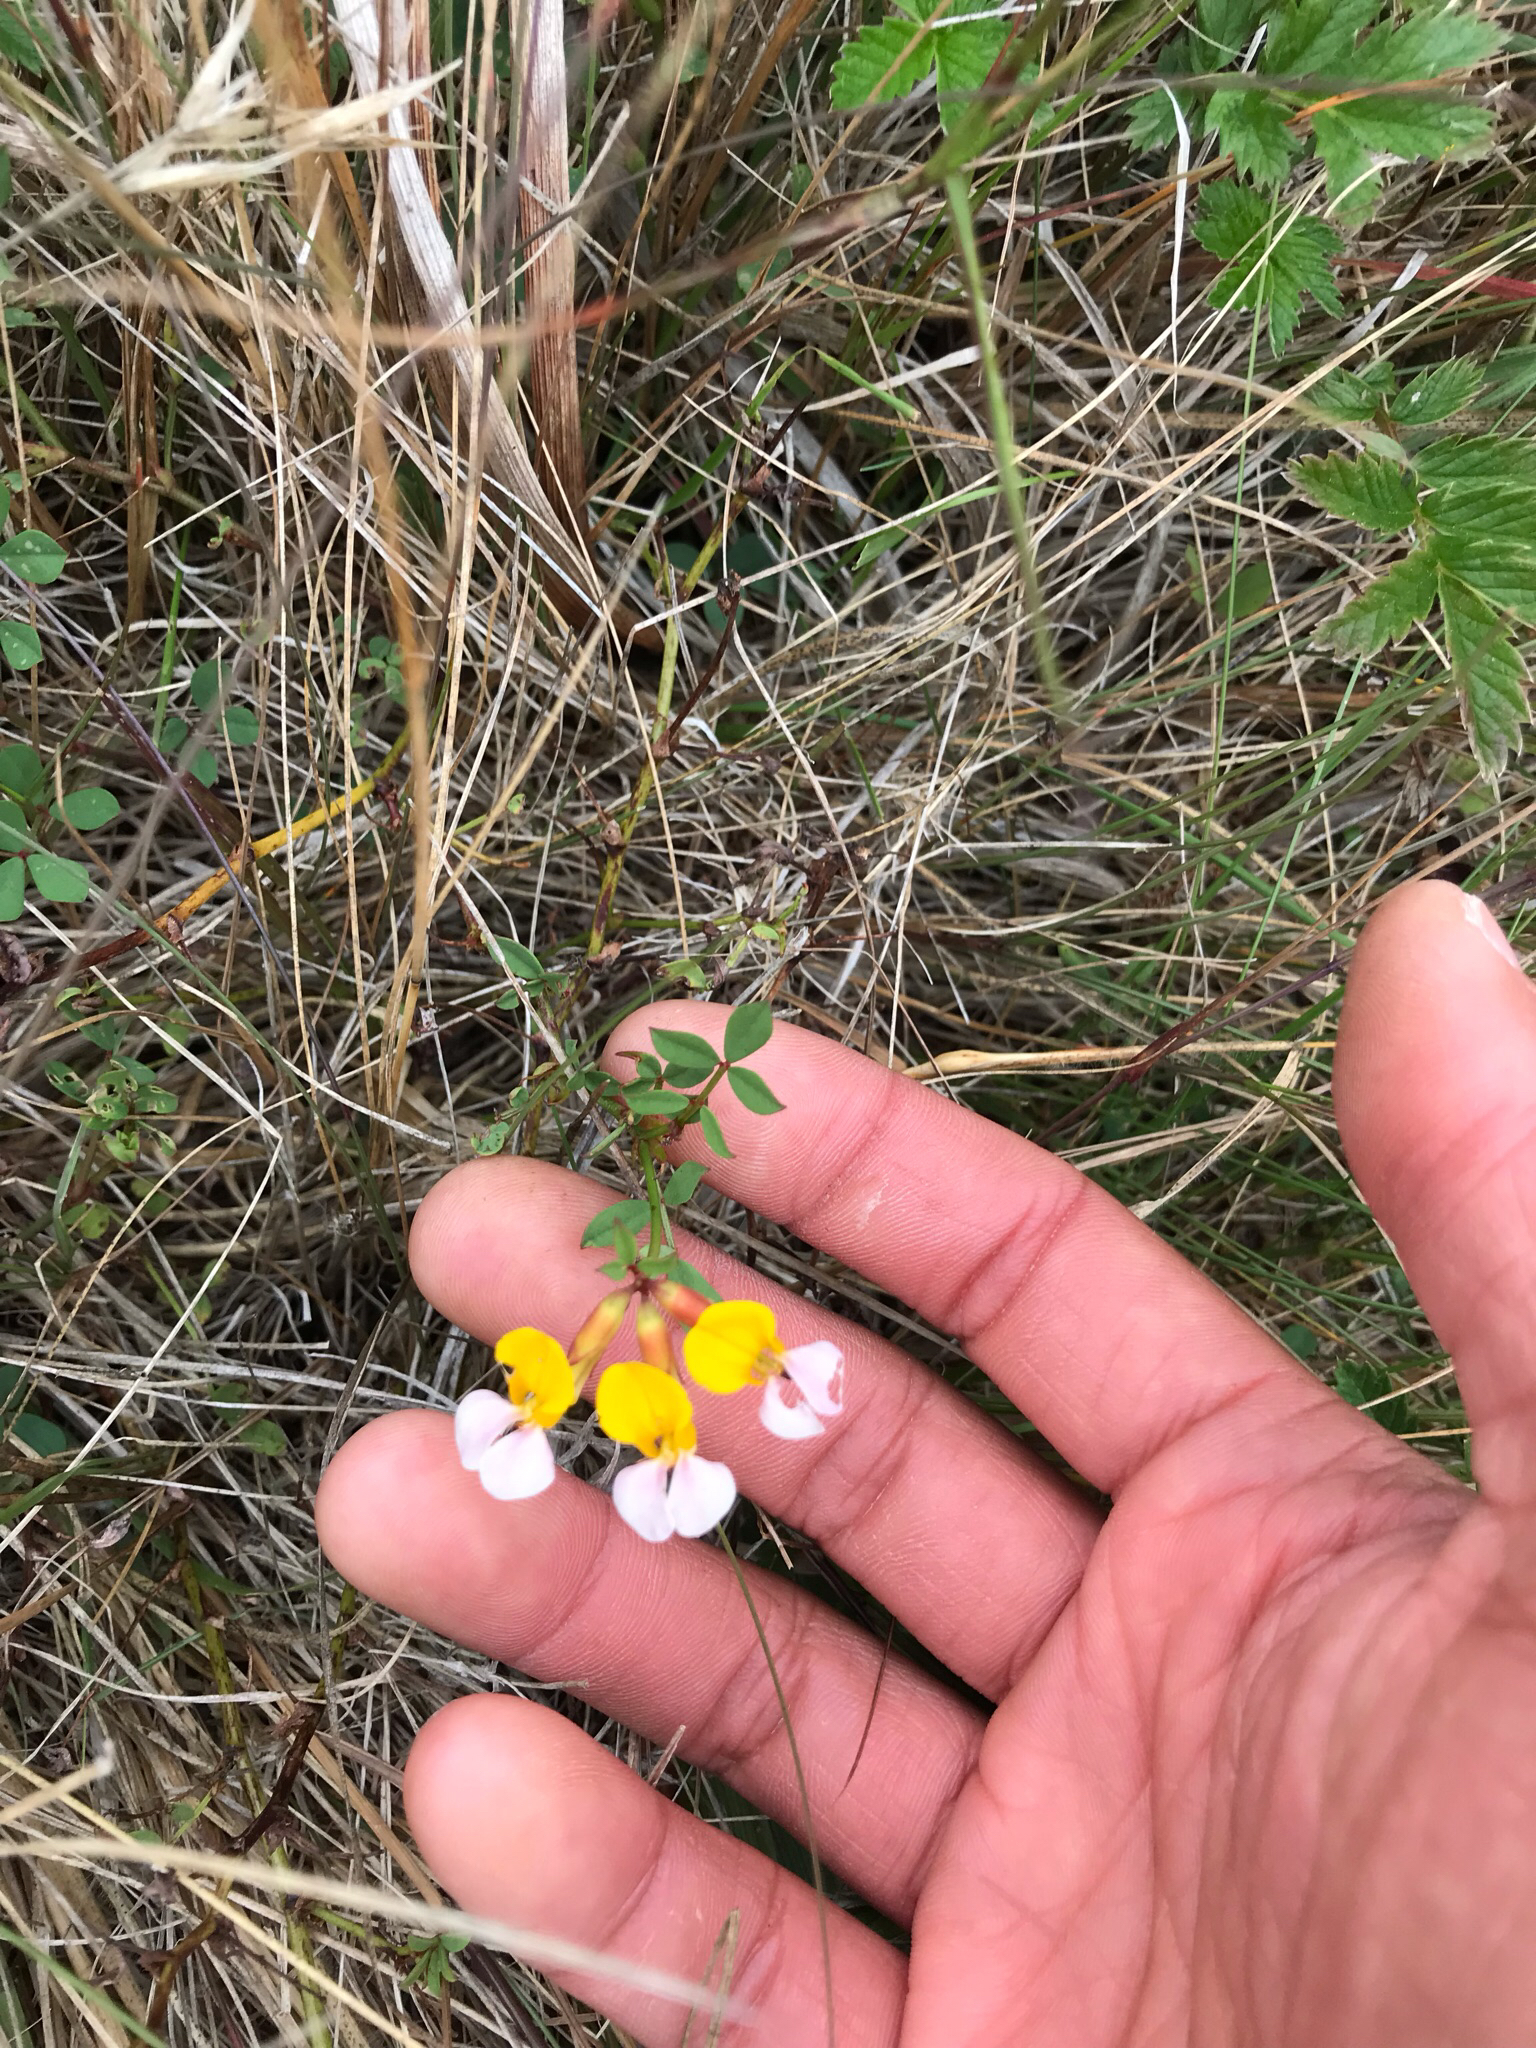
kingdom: Plantae
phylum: Tracheophyta
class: Magnoliopsida
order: Fabales
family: Fabaceae
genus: Hosackia
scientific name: Hosackia gracilis
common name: Seaside bird's-foot lotus
